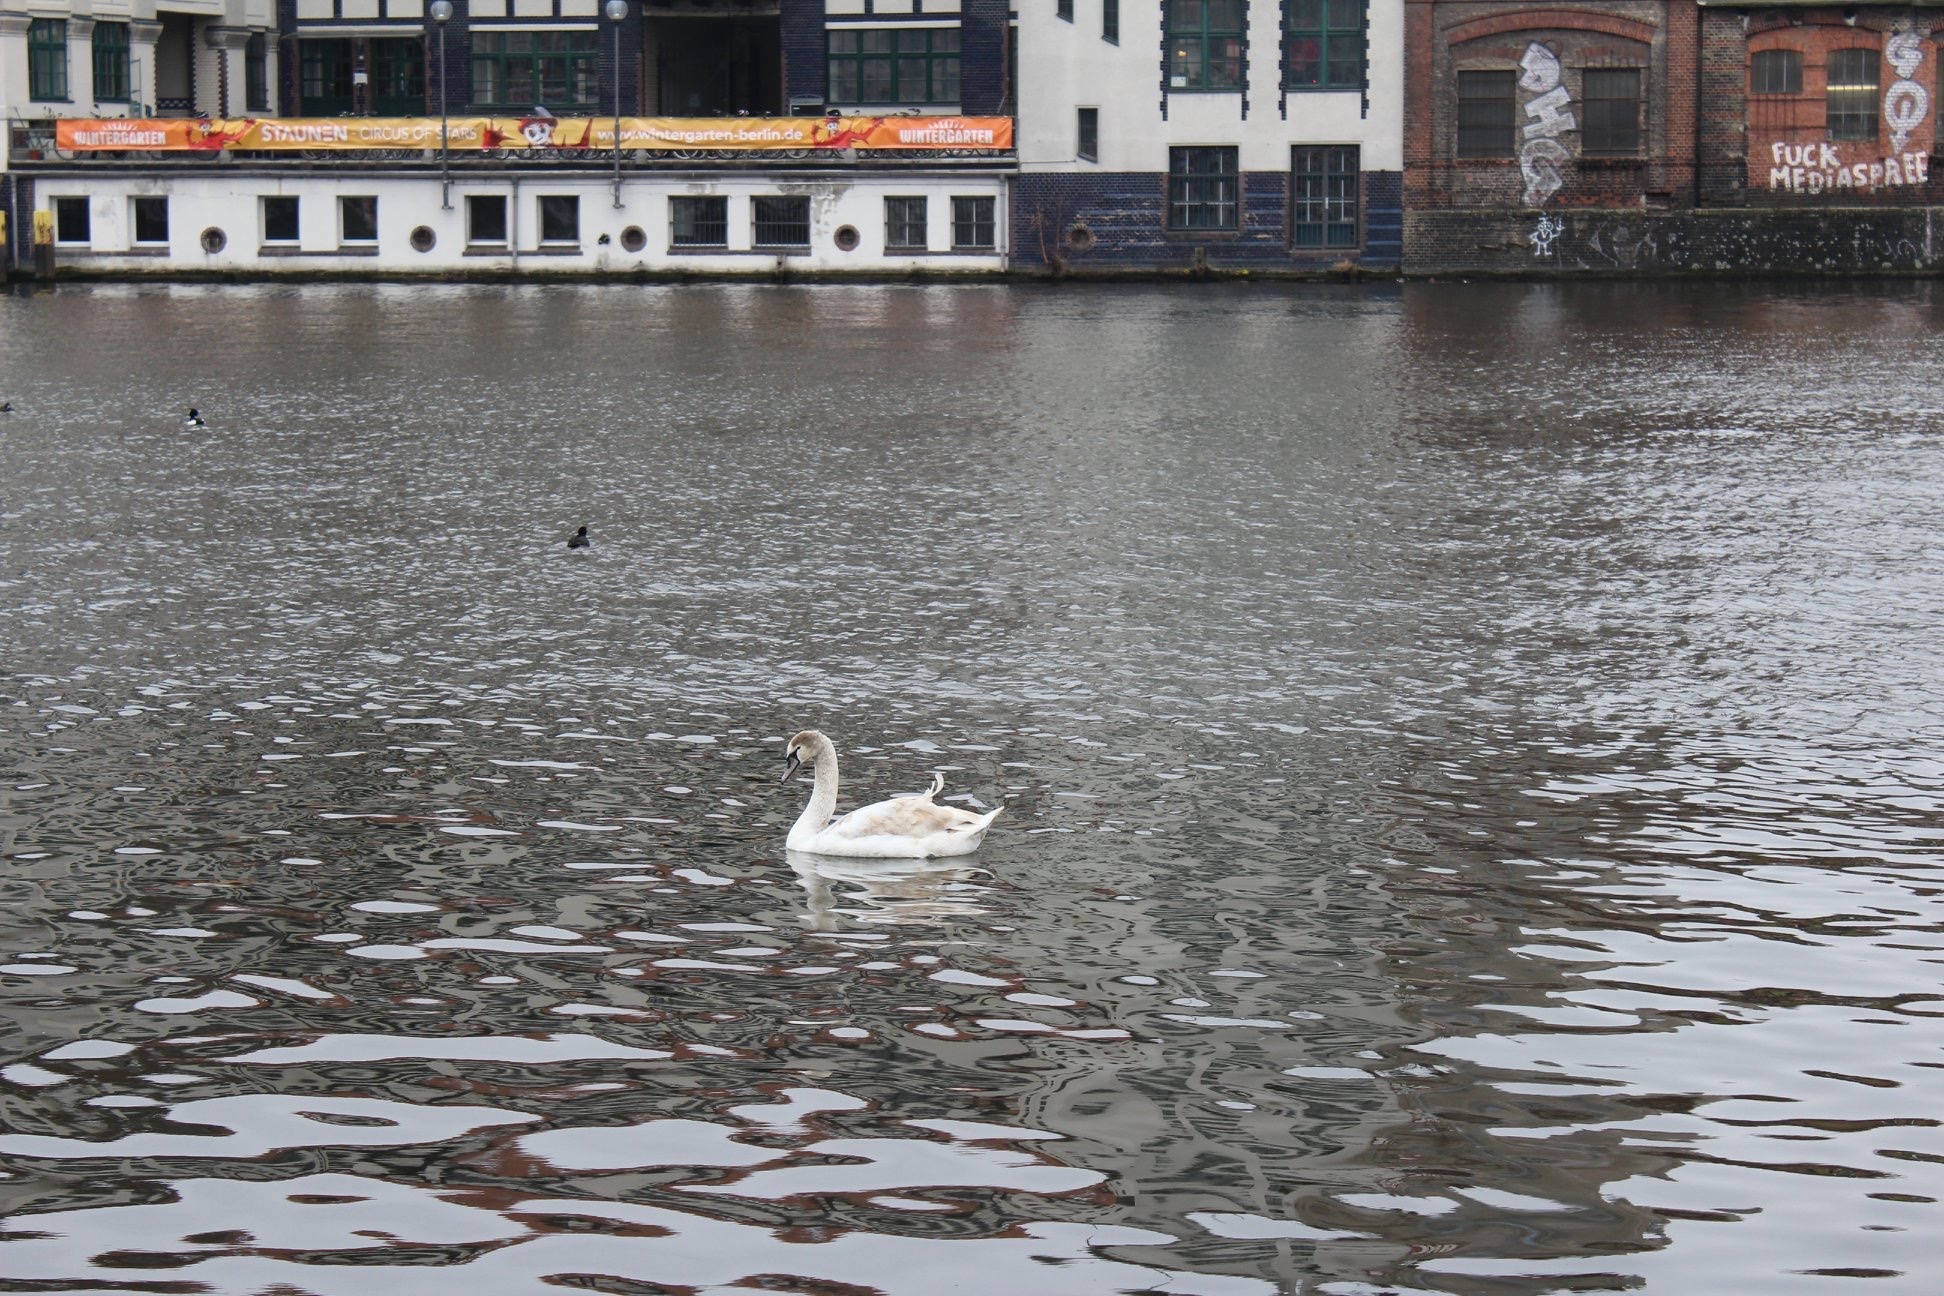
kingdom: Animalia
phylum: Chordata
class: Aves
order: Anseriformes
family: Anatidae
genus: Cygnus
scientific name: Cygnus olor
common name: Mute swan
